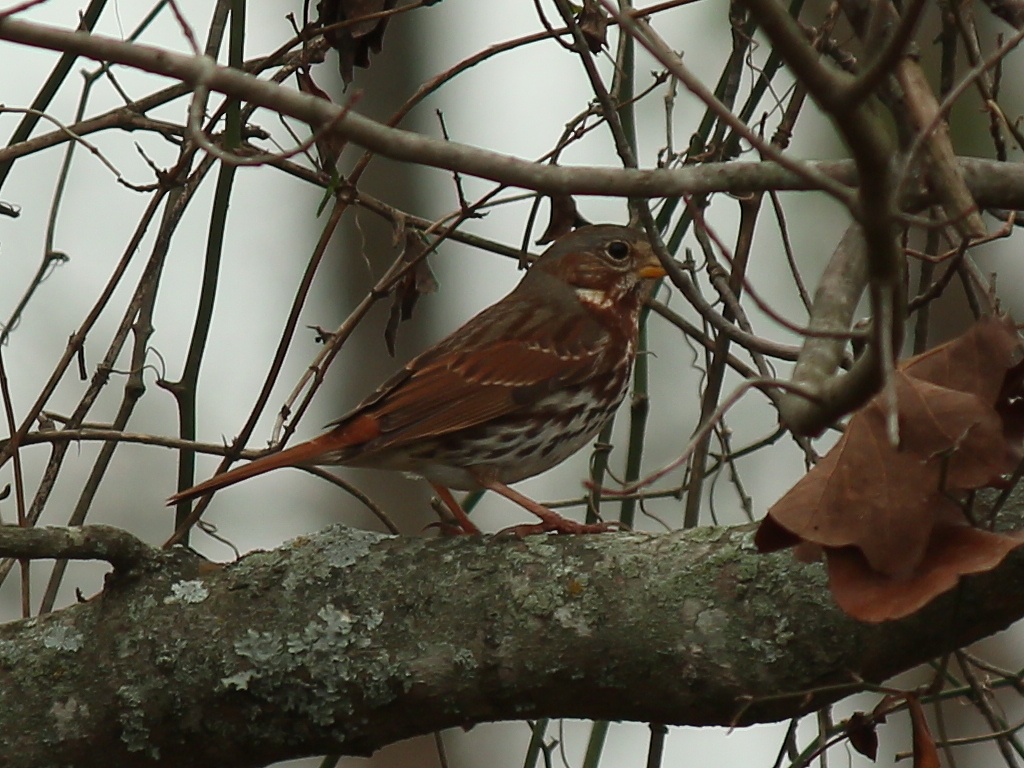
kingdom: Animalia
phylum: Chordata
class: Aves
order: Passeriformes
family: Passerellidae
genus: Passerella
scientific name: Passerella iliaca
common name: Fox sparrow
